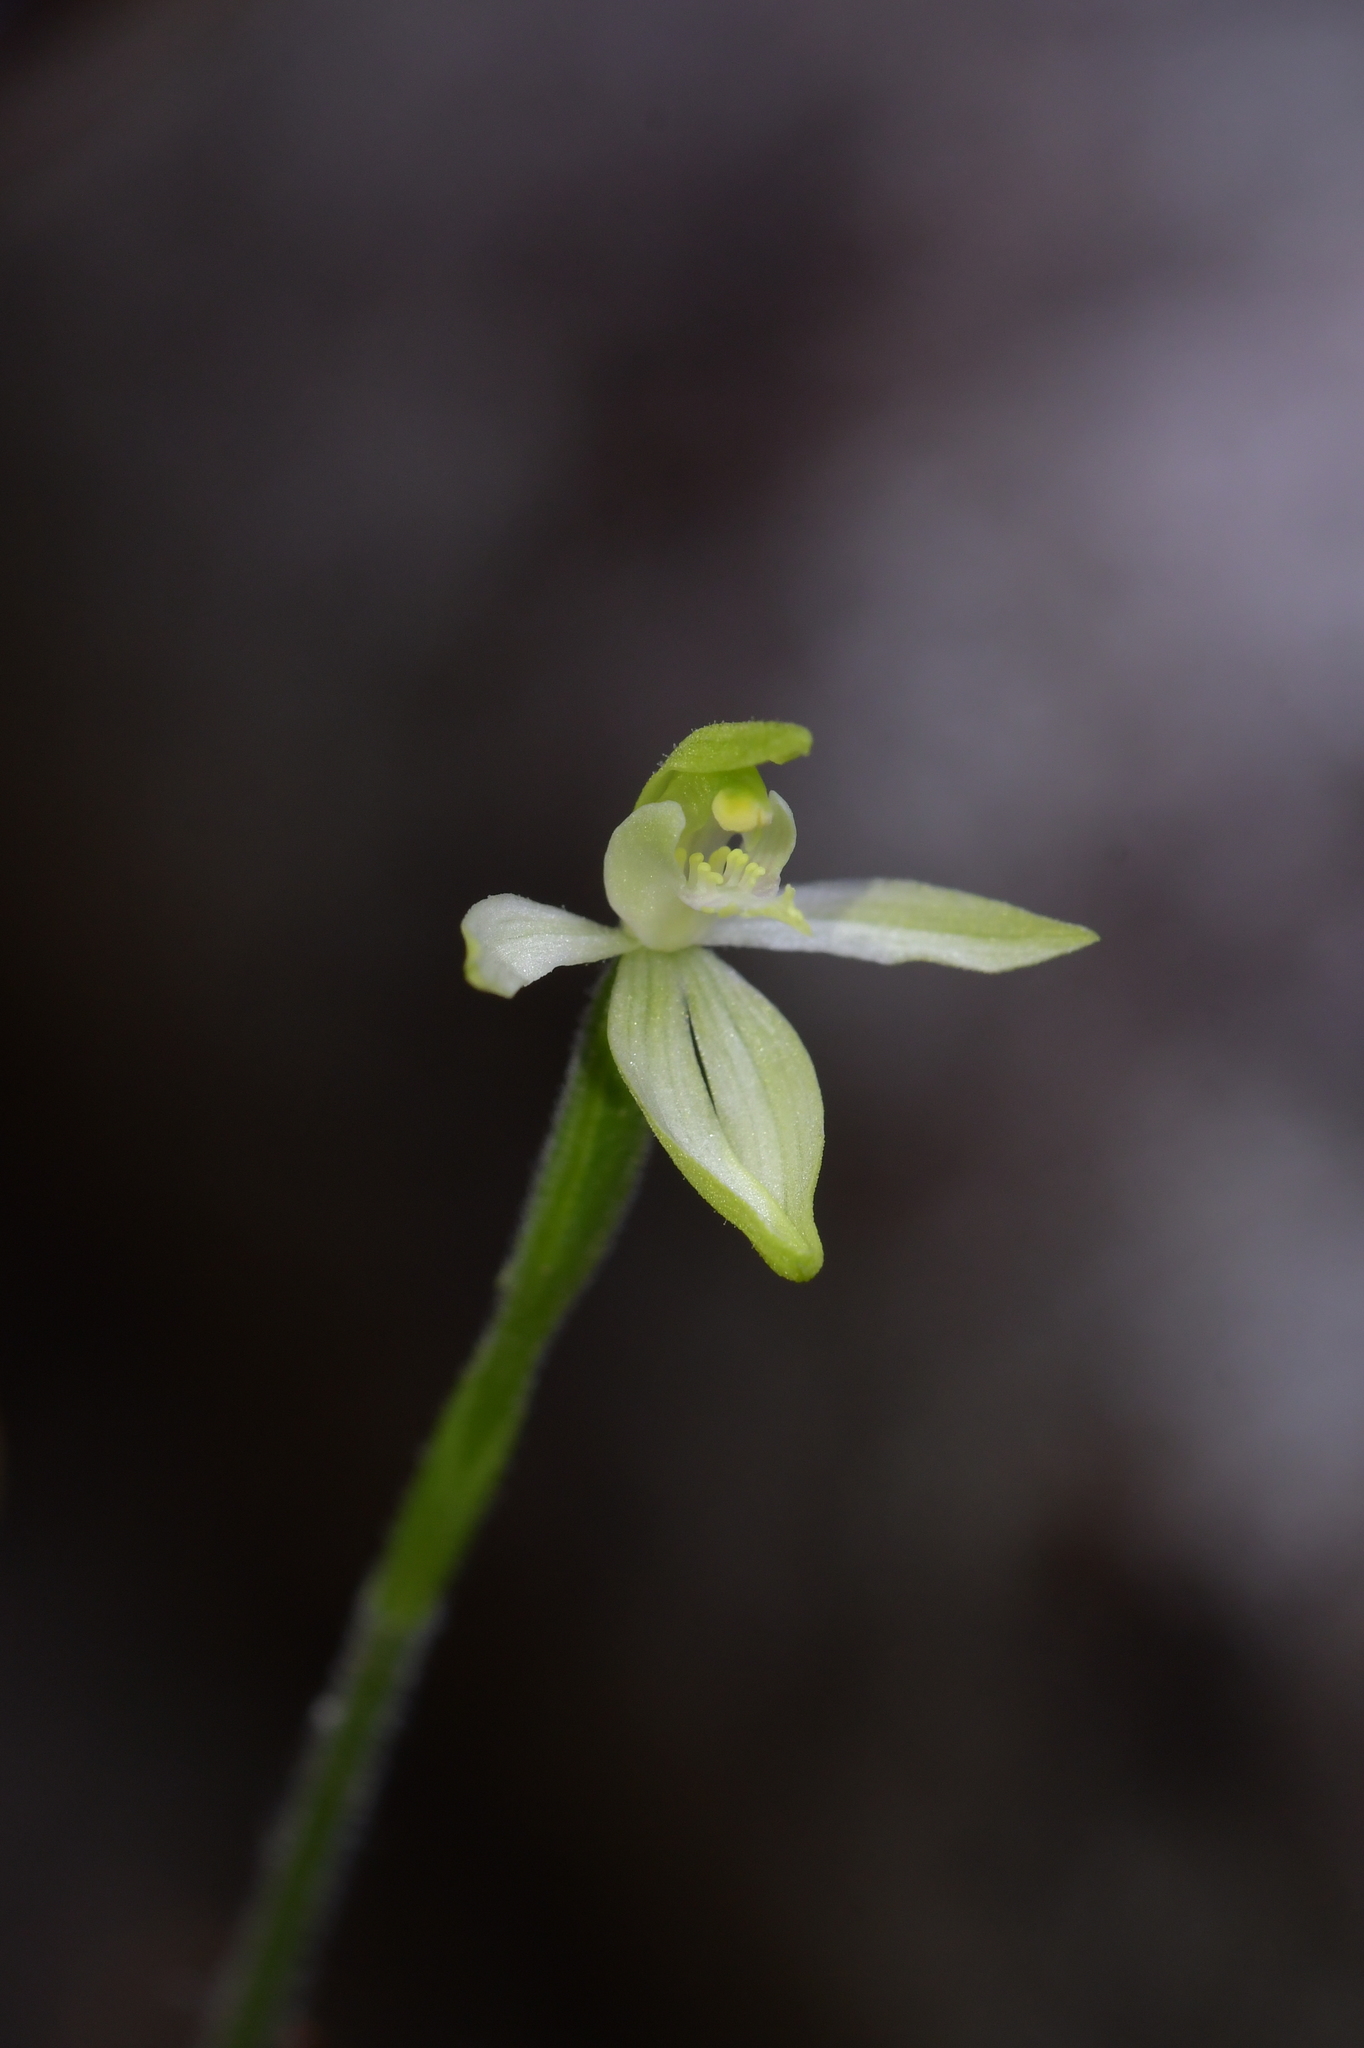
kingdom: Plantae
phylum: Tracheophyta
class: Liliopsida
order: Asparagales
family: Orchidaceae
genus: Caladenia
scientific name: Caladenia nothofageti
